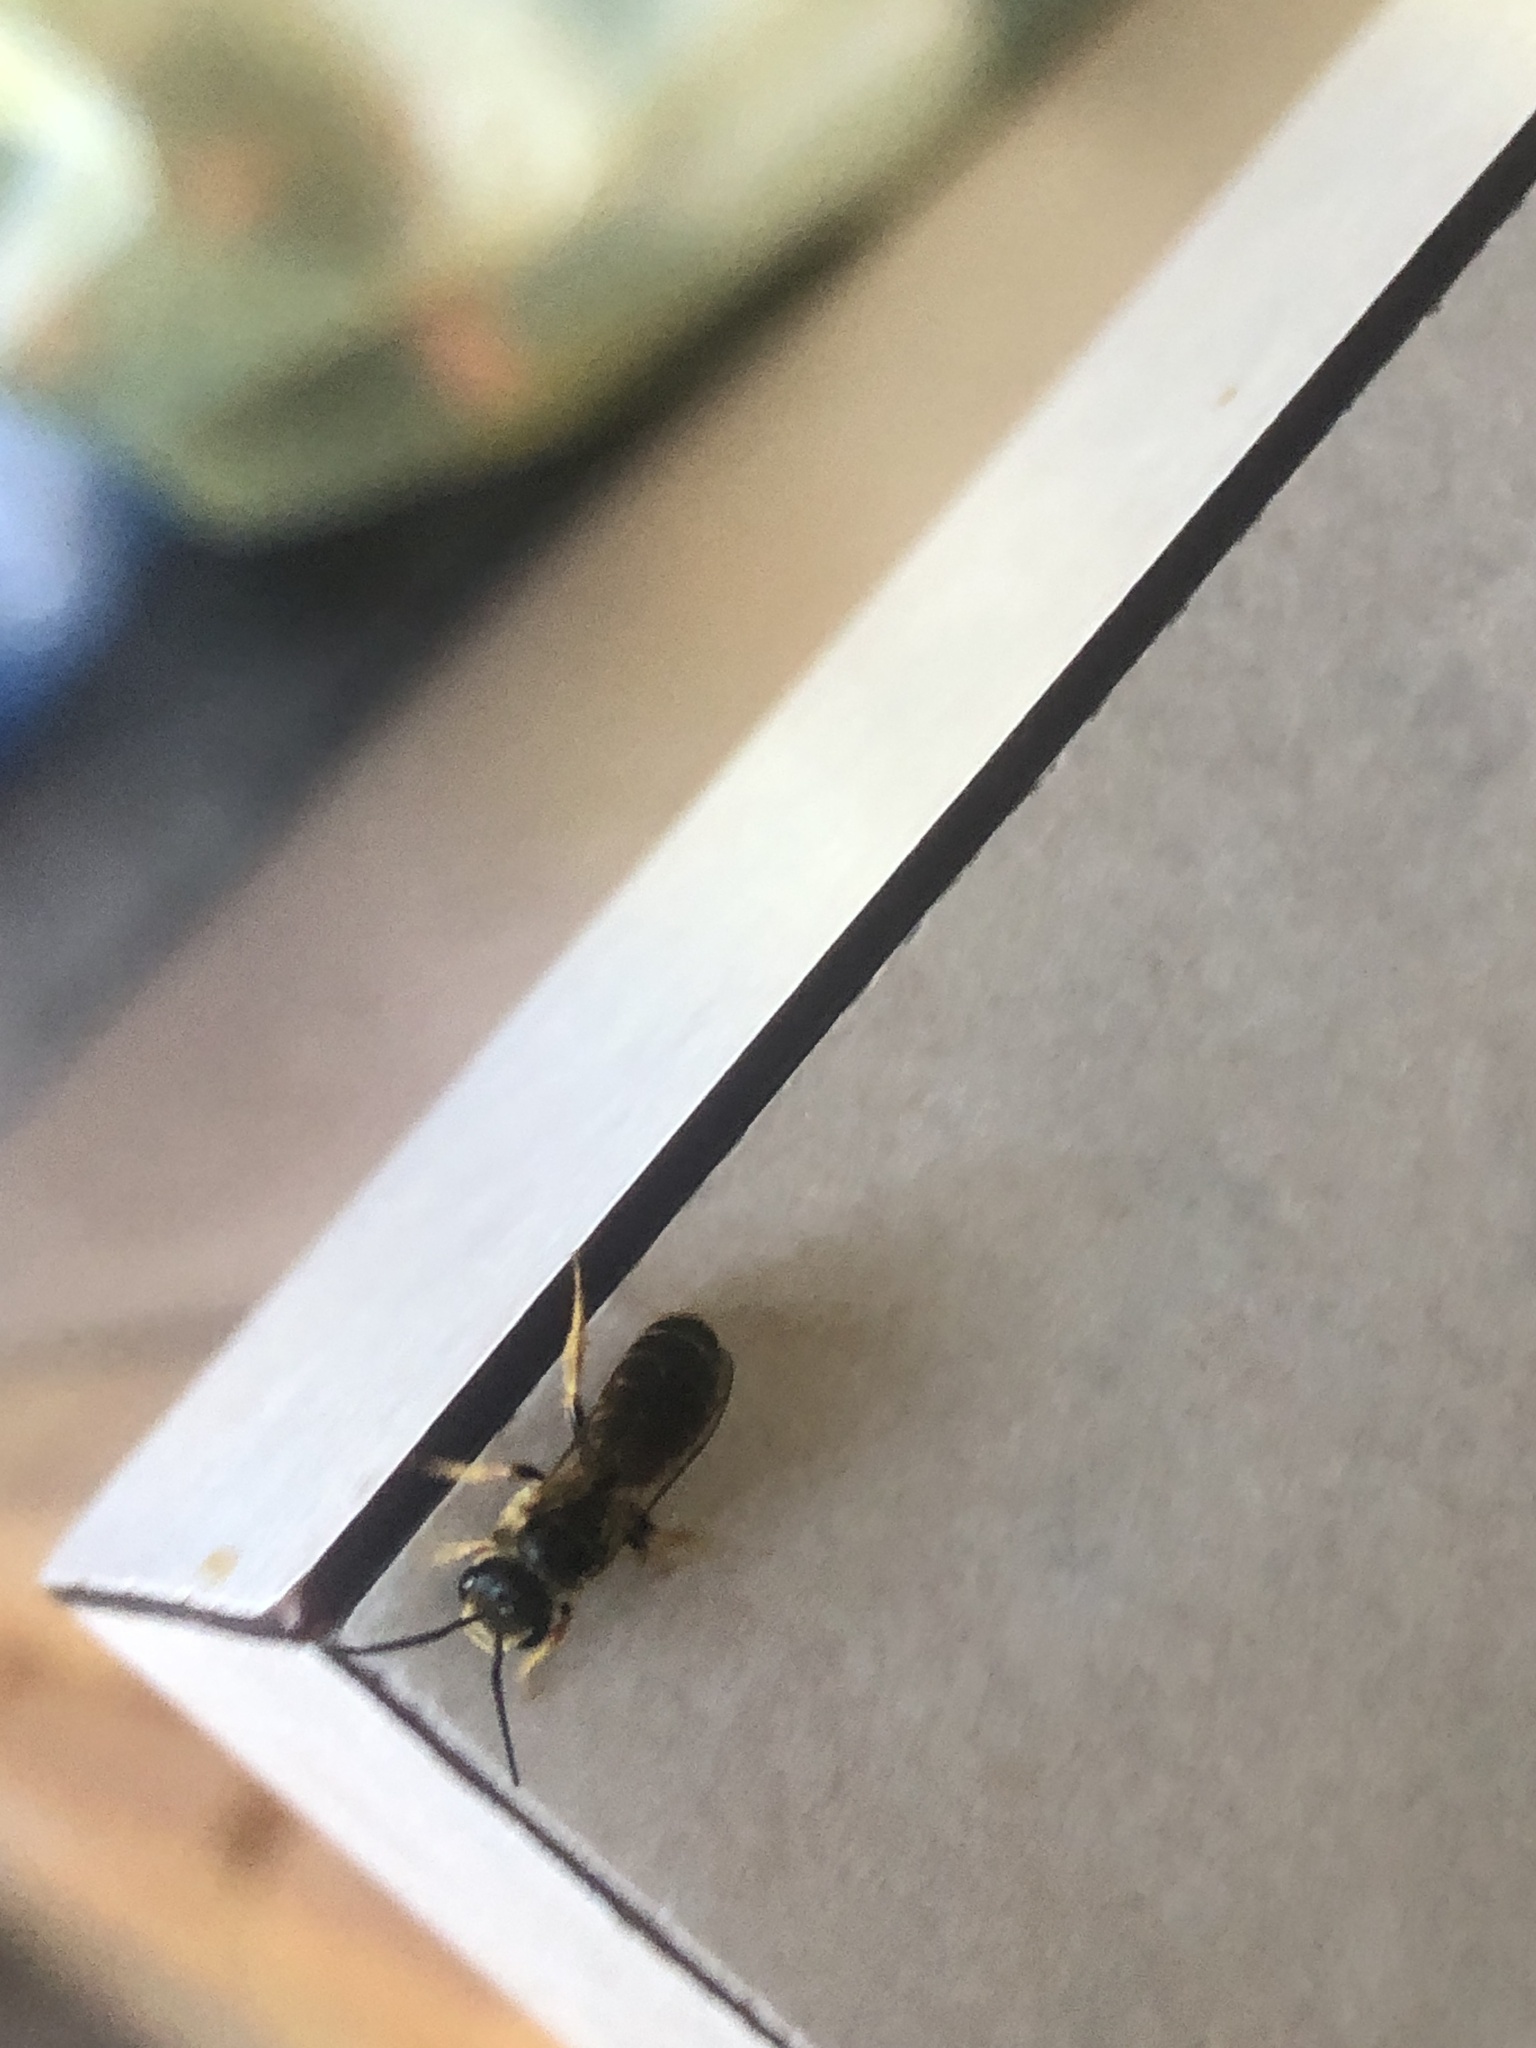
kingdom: Animalia
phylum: Arthropoda
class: Insecta
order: Hymenoptera
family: Halictidae
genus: Halictus
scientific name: Halictus poeyi
